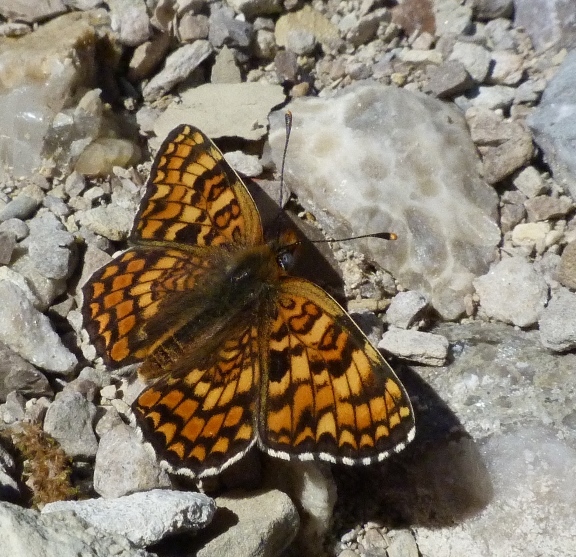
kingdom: Animalia
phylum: Arthropoda
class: Insecta
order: Lepidoptera
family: Nymphalidae
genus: Melitaea
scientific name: Melitaea phoebe
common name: Knapweed fritillary
